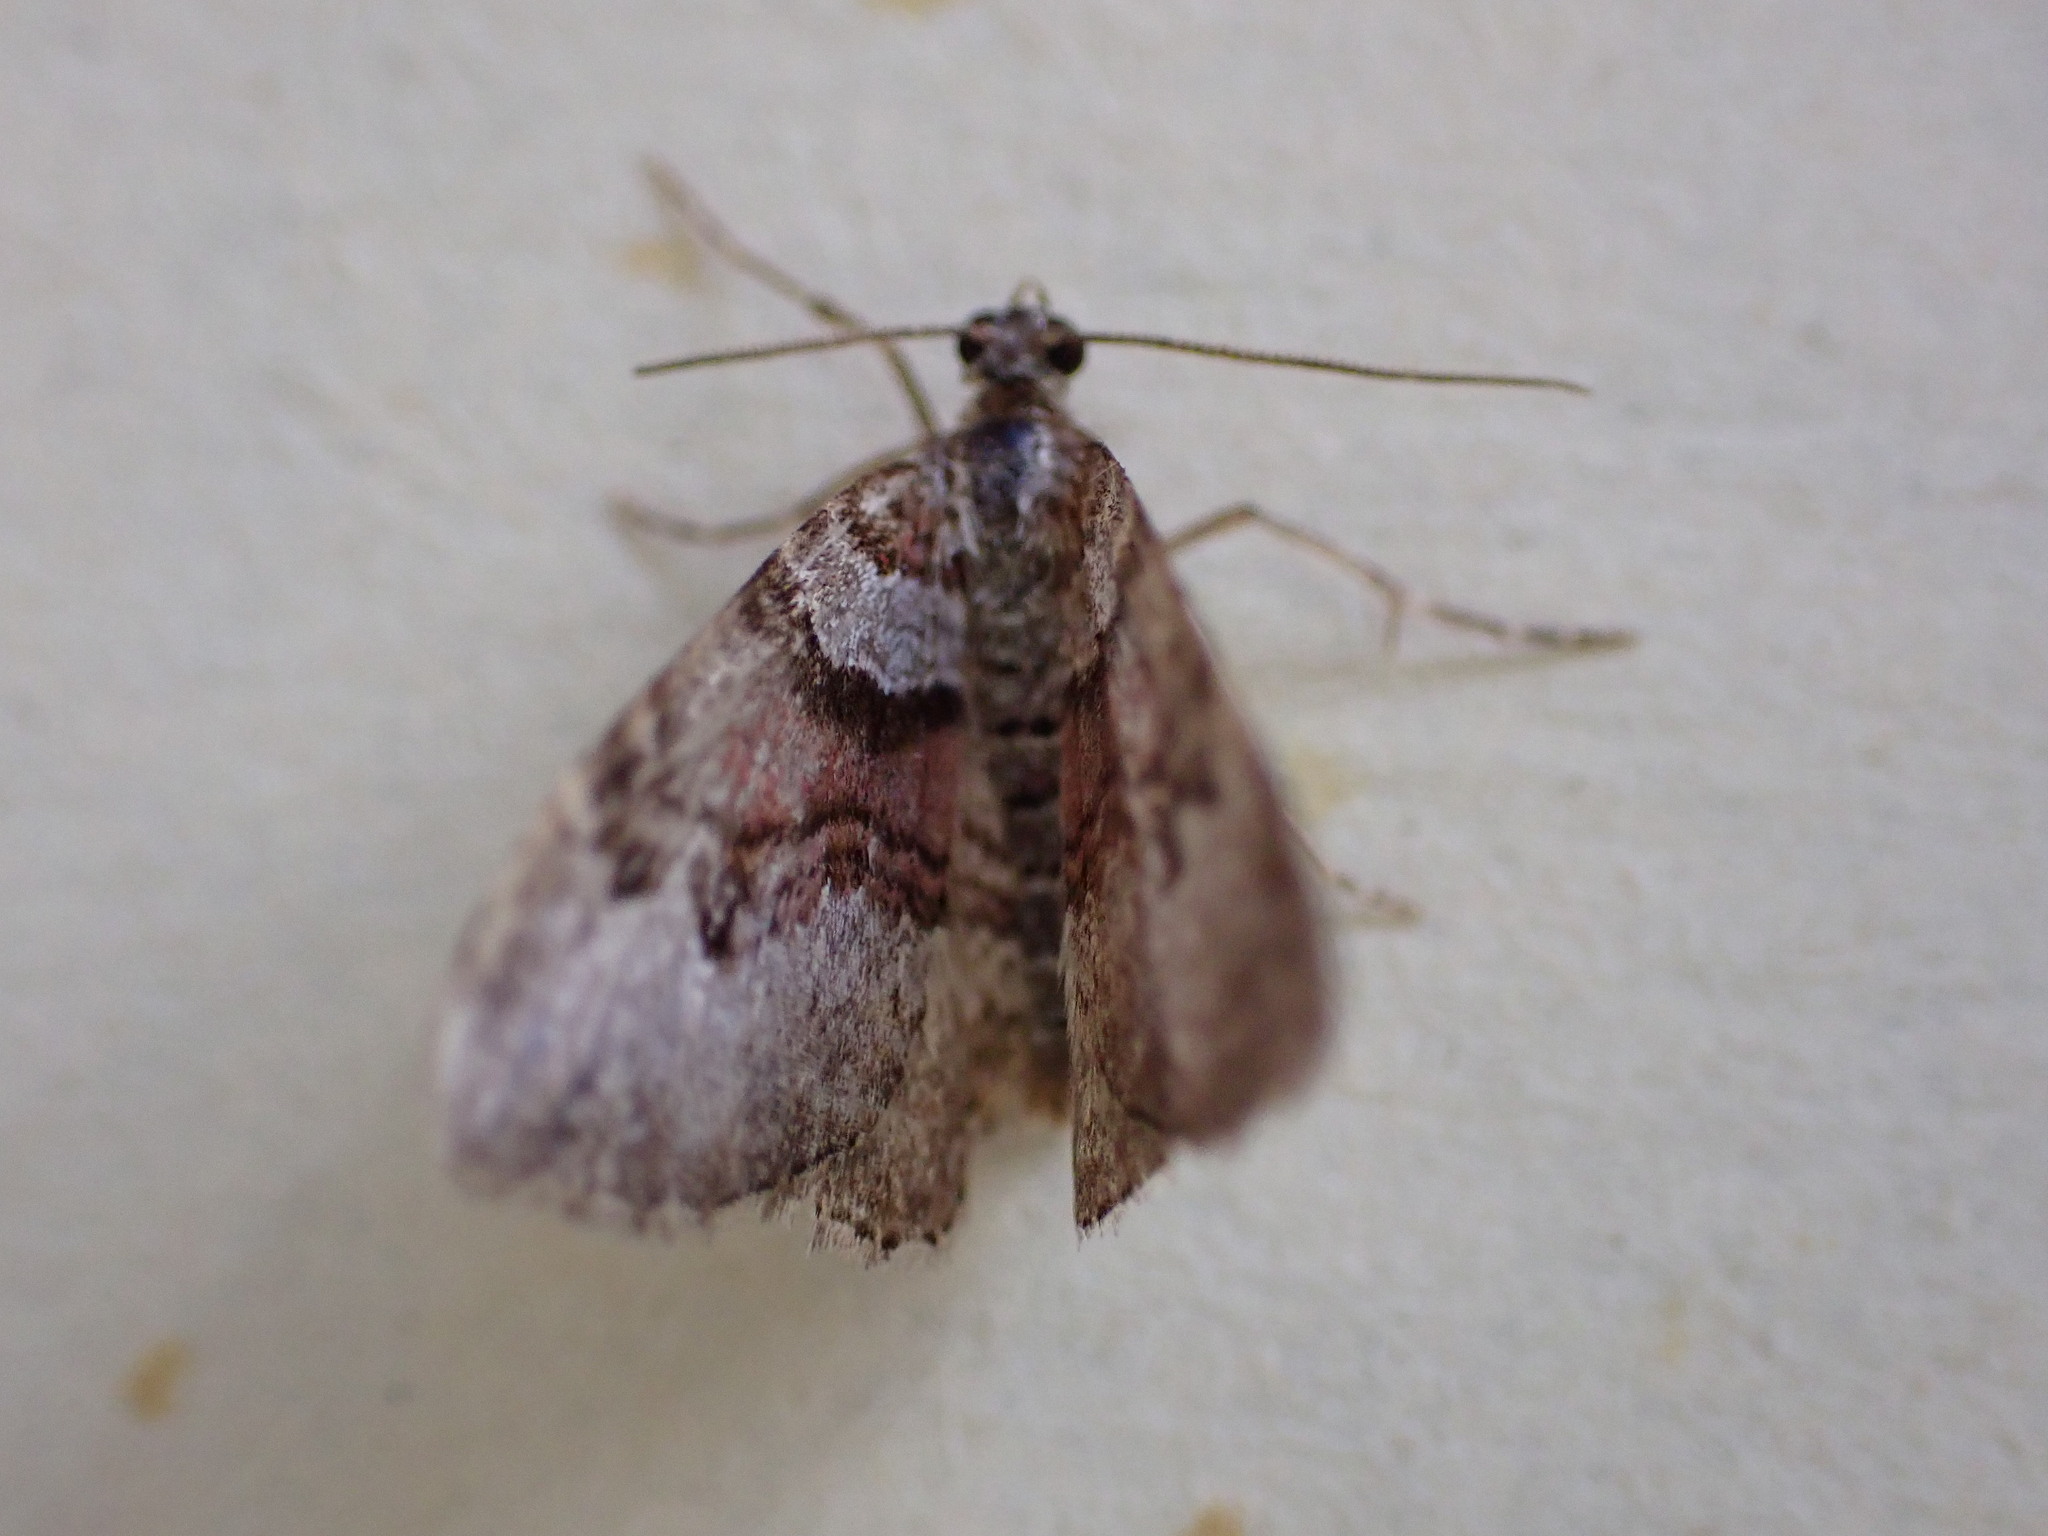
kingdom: Animalia
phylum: Arthropoda
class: Insecta
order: Lepidoptera
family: Geometridae
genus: Xanthorhoe
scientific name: Xanthorhoe designata
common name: Flame carpet
